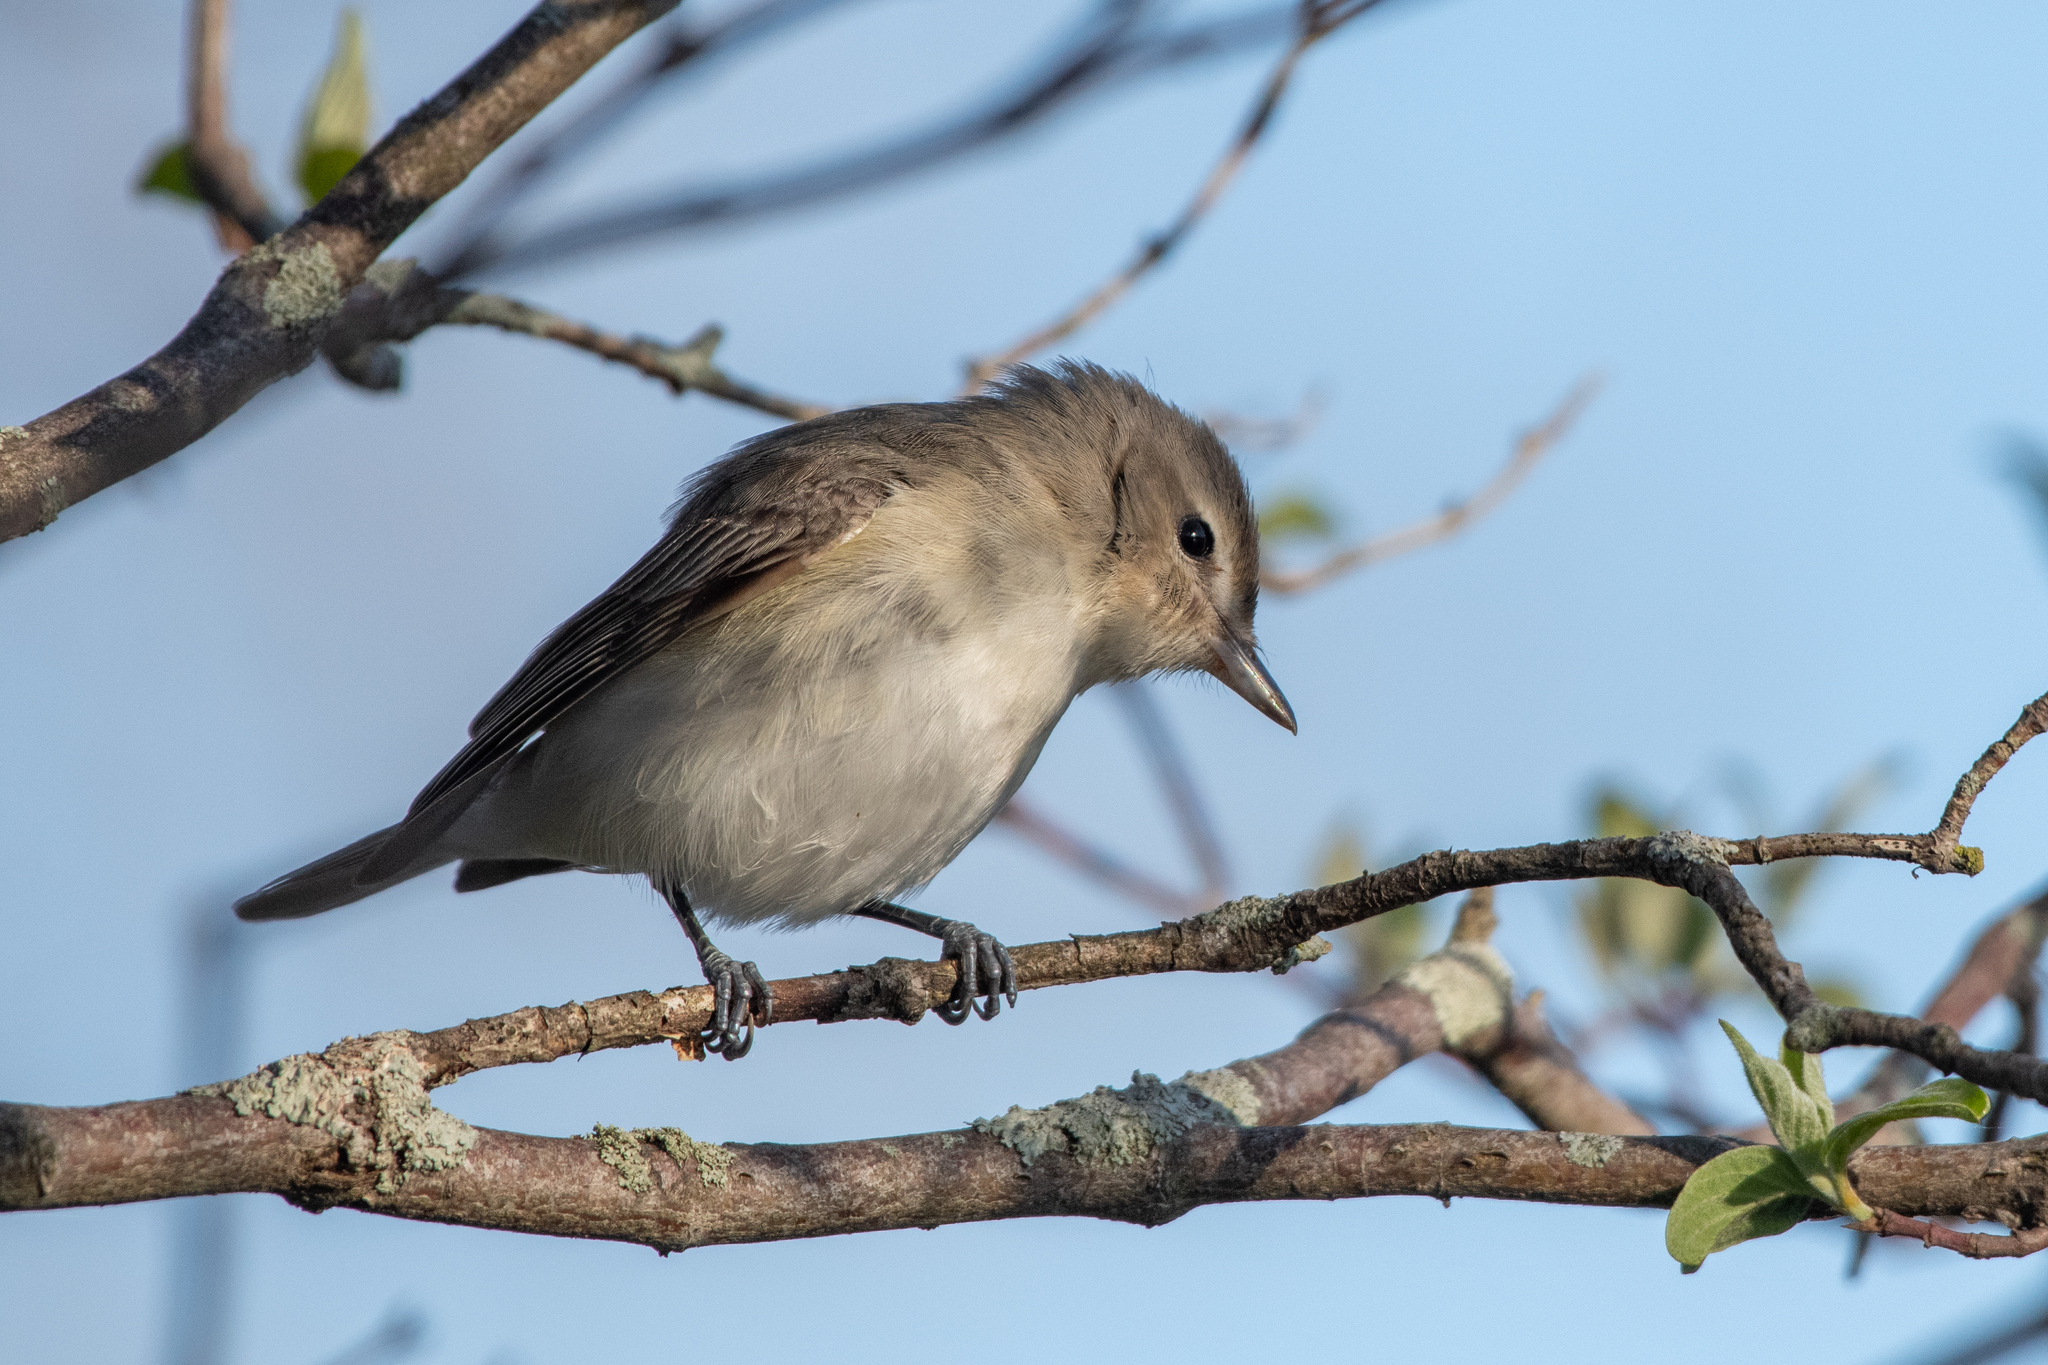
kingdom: Animalia
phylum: Chordata
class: Aves
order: Passeriformes
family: Vireonidae
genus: Vireo
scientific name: Vireo gilvus
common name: Warbling vireo
